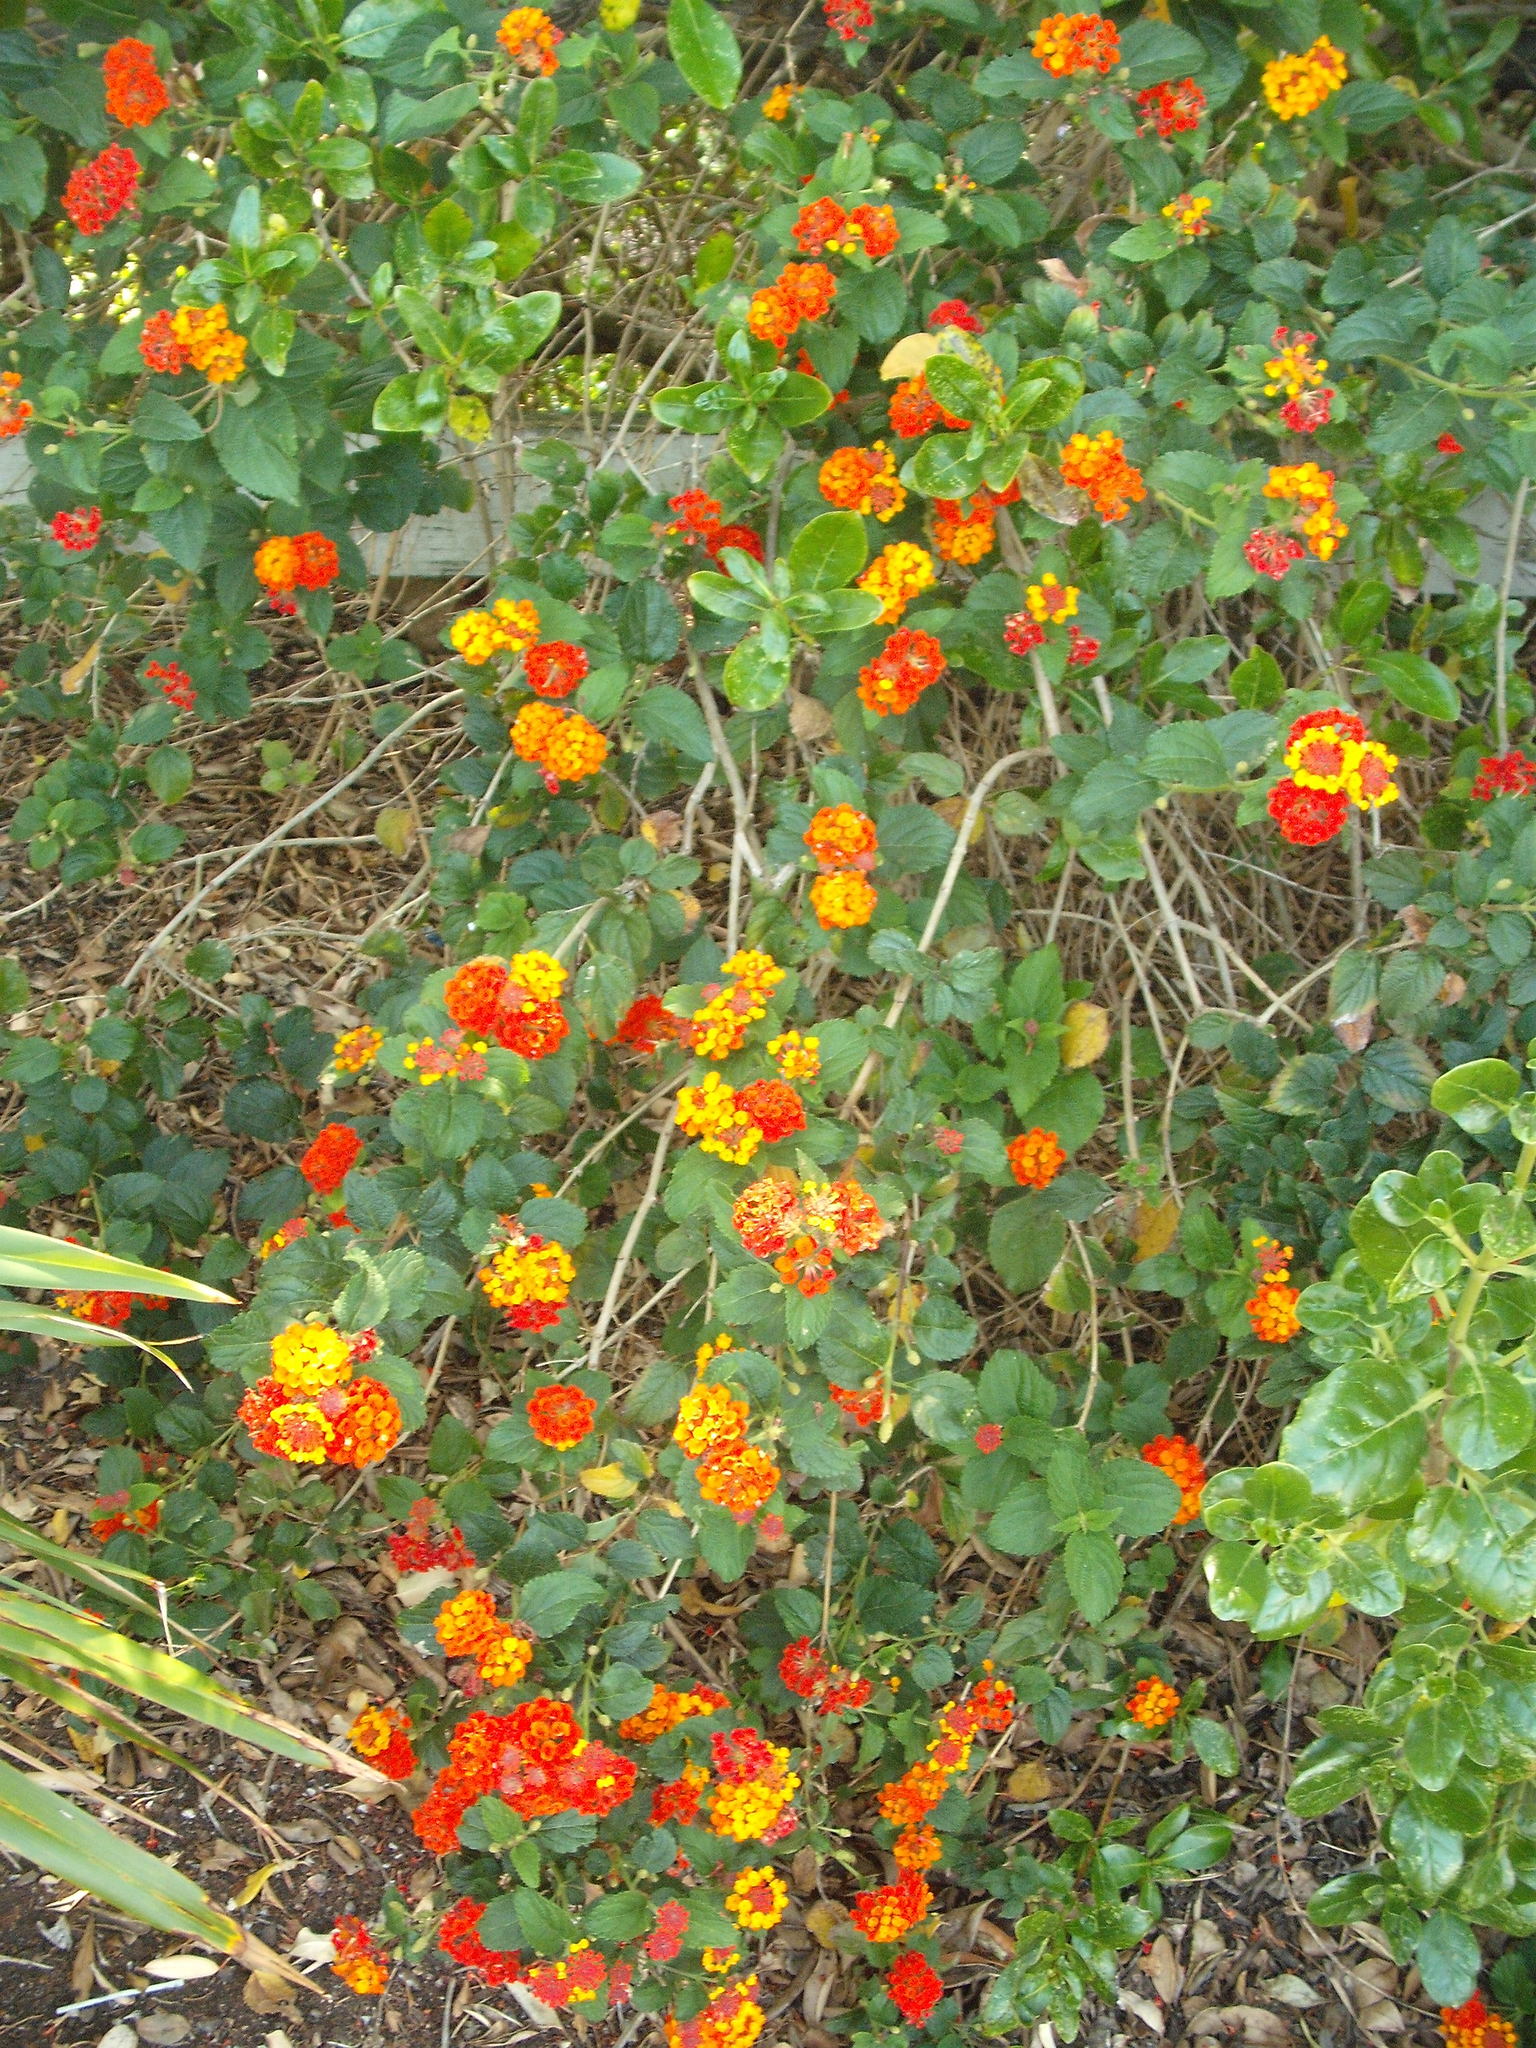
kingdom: Plantae
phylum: Tracheophyta
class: Magnoliopsida
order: Lamiales
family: Verbenaceae
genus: Lantana
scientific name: Lantana camara
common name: Lantana
